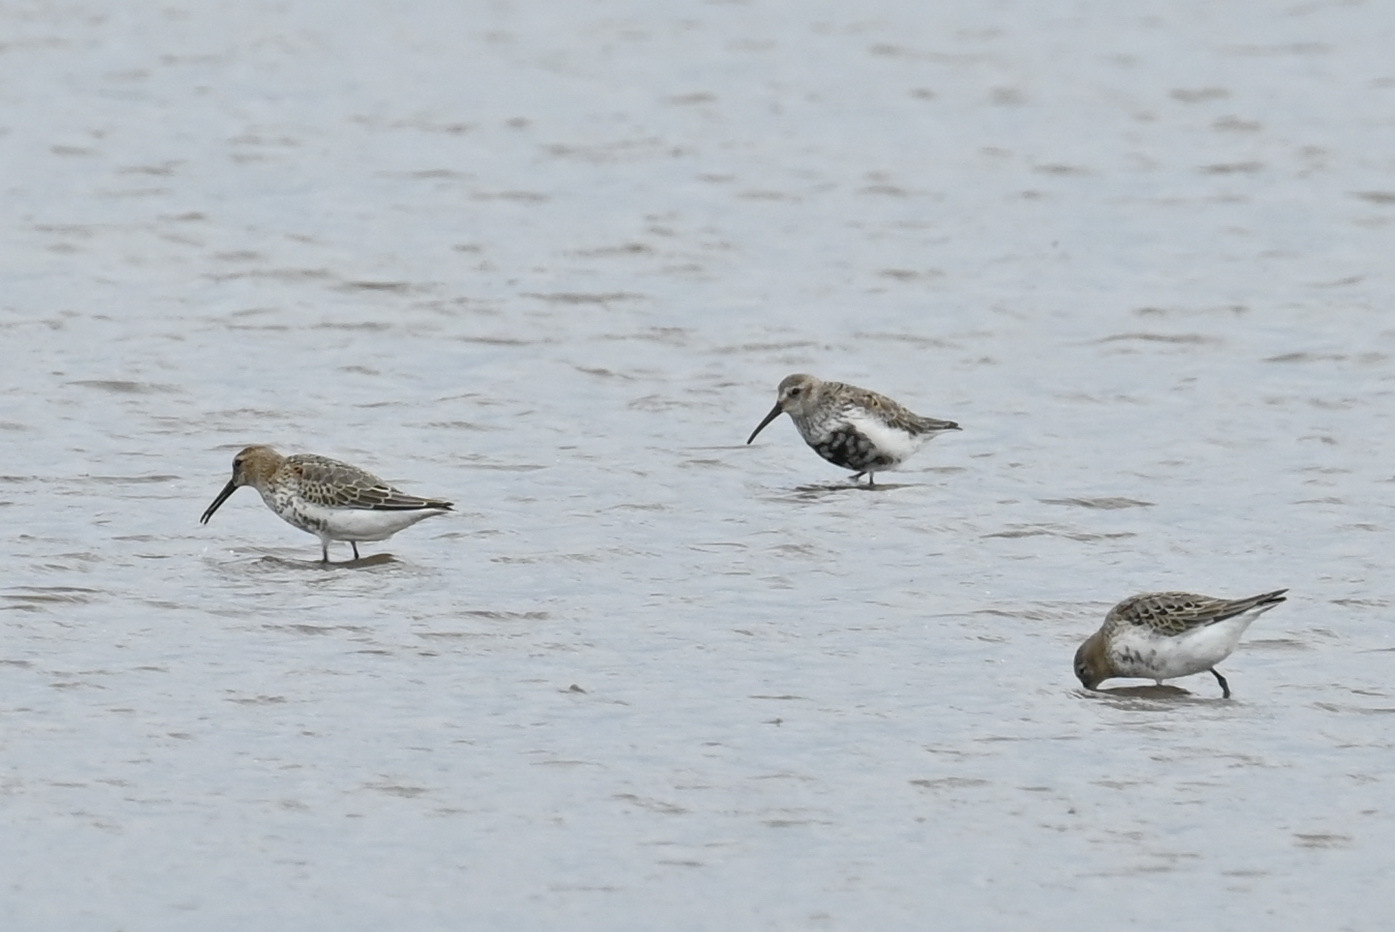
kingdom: Animalia
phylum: Chordata
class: Aves
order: Charadriiformes
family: Scolopacidae
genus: Calidris
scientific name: Calidris alpina
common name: Dunlin
